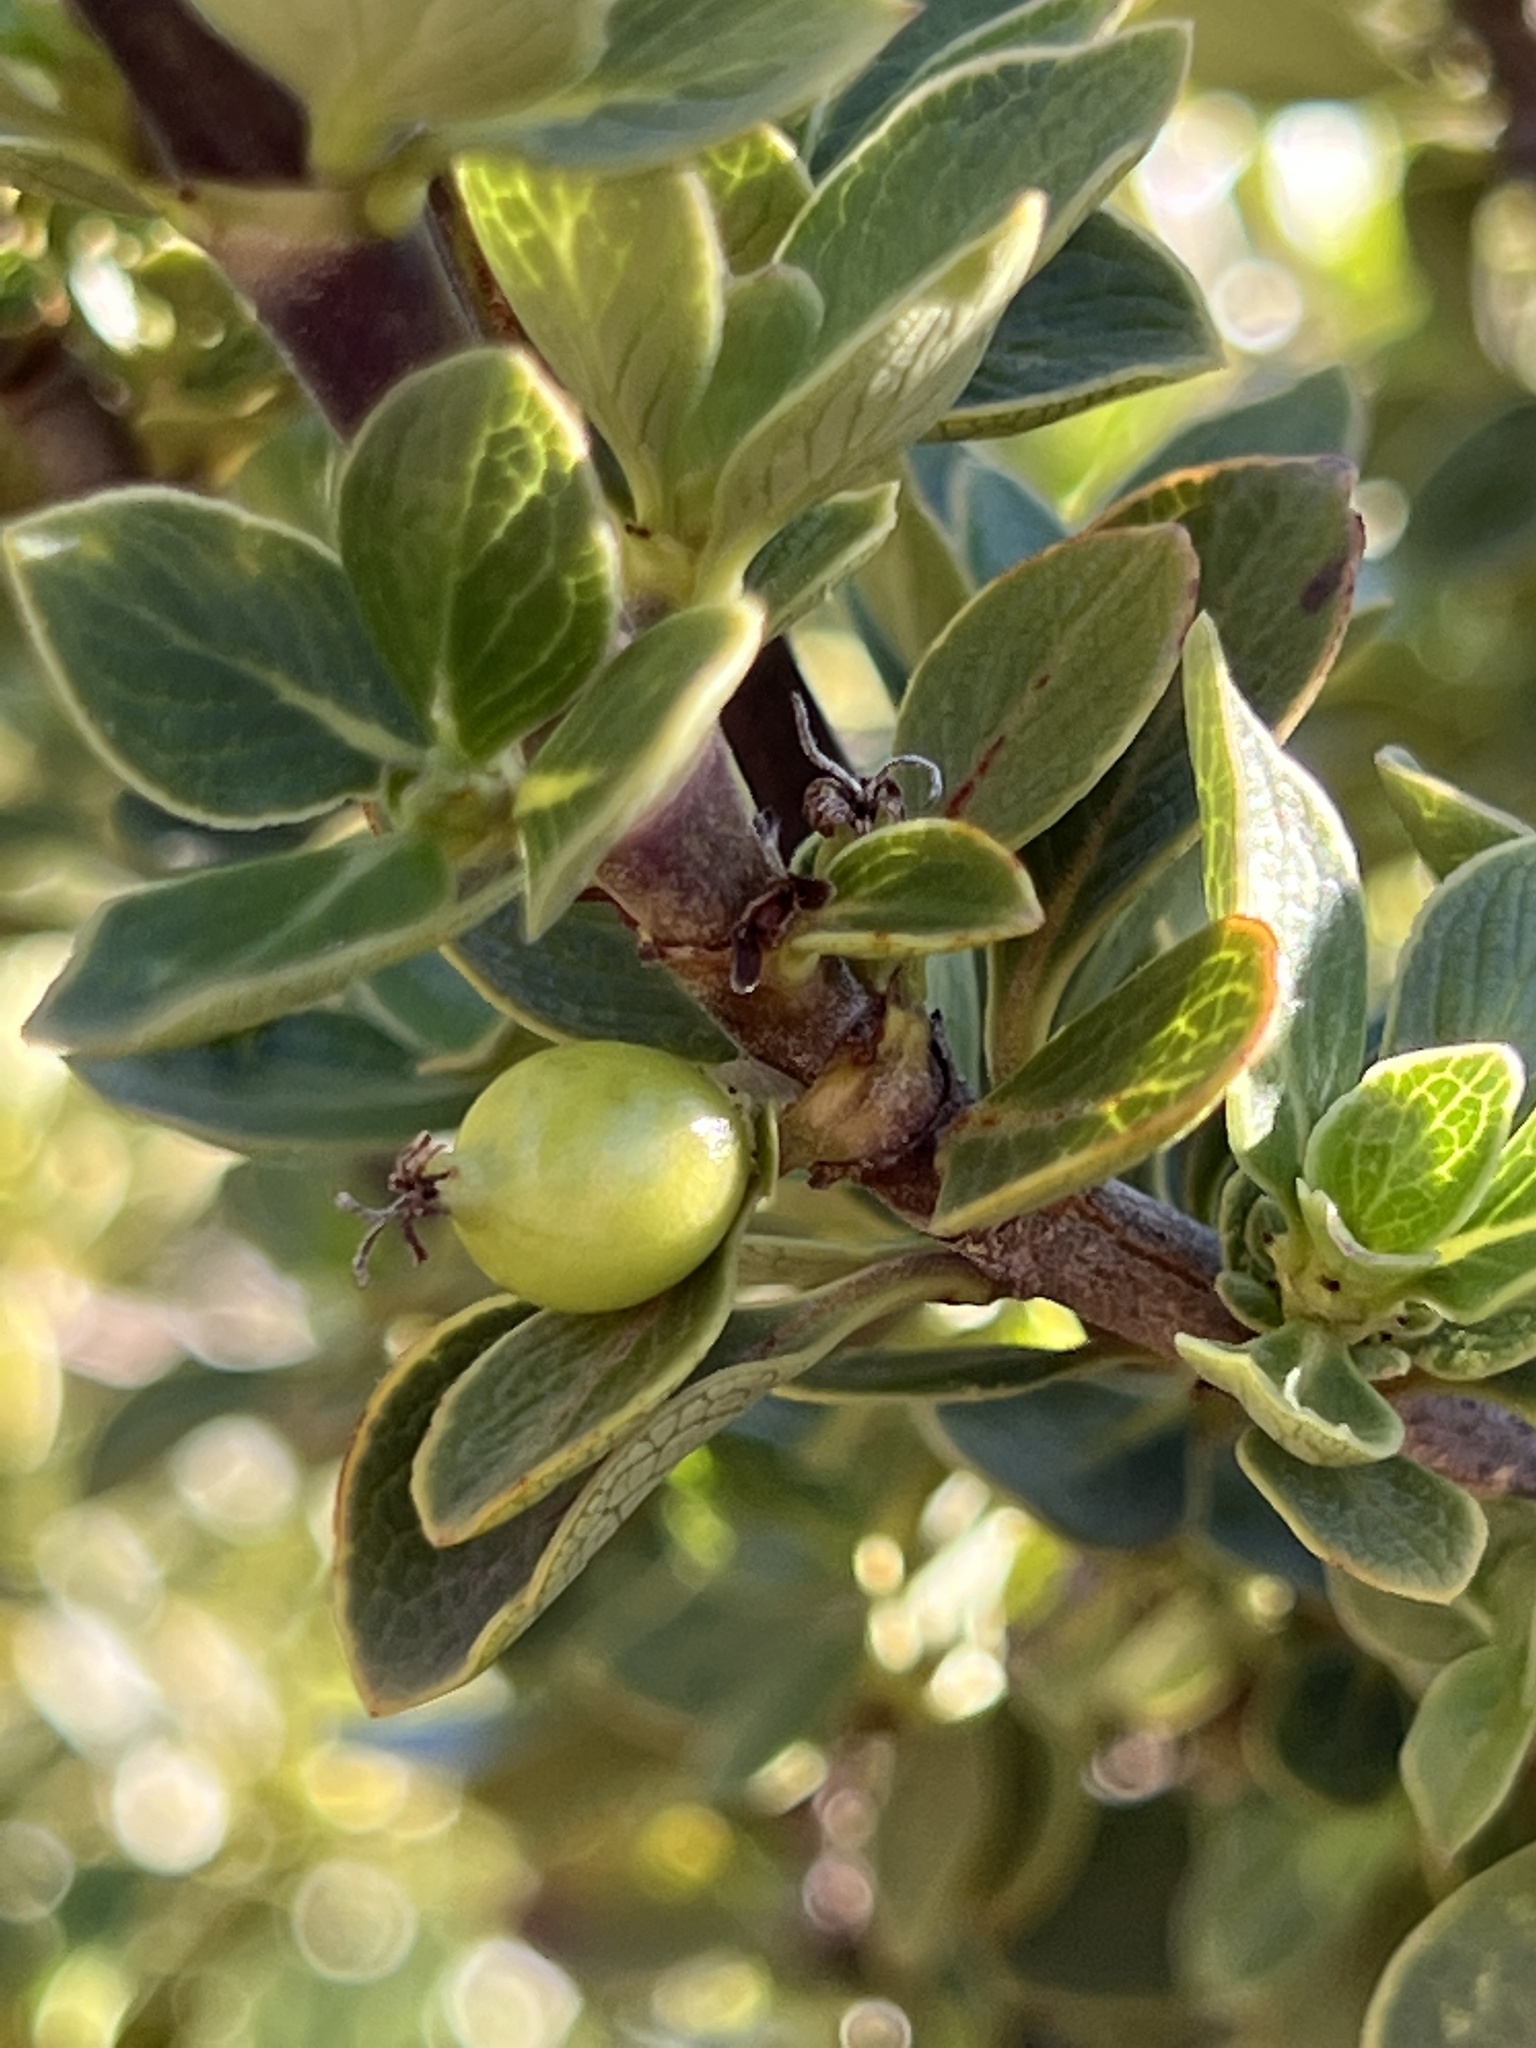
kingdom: Plantae
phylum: Tracheophyta
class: Magnoliopsida
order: Gentianales
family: Rubiaceae
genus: Coprosma
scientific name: Coprosma montana
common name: Alpine mirror plant
